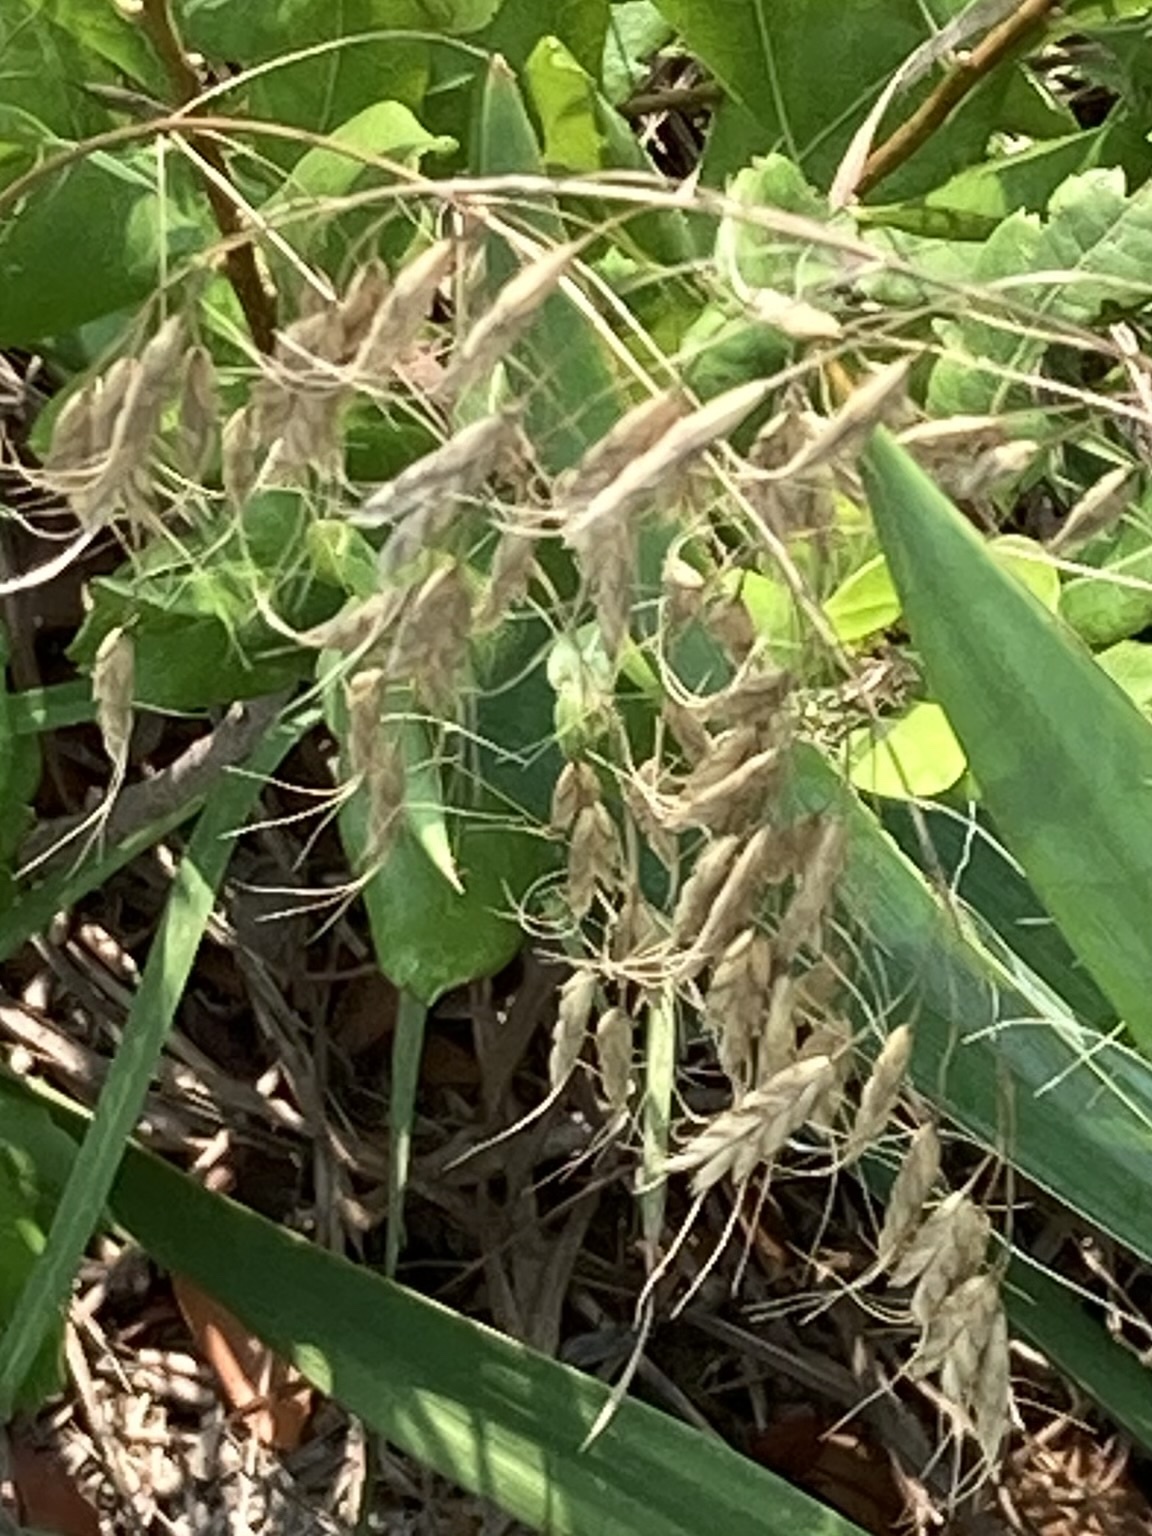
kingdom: Plantae
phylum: Tracheophyta
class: Liliopsida
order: Poales
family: Poaceae
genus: Bromus
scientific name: Bromus japonicus
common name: Japanese brome
